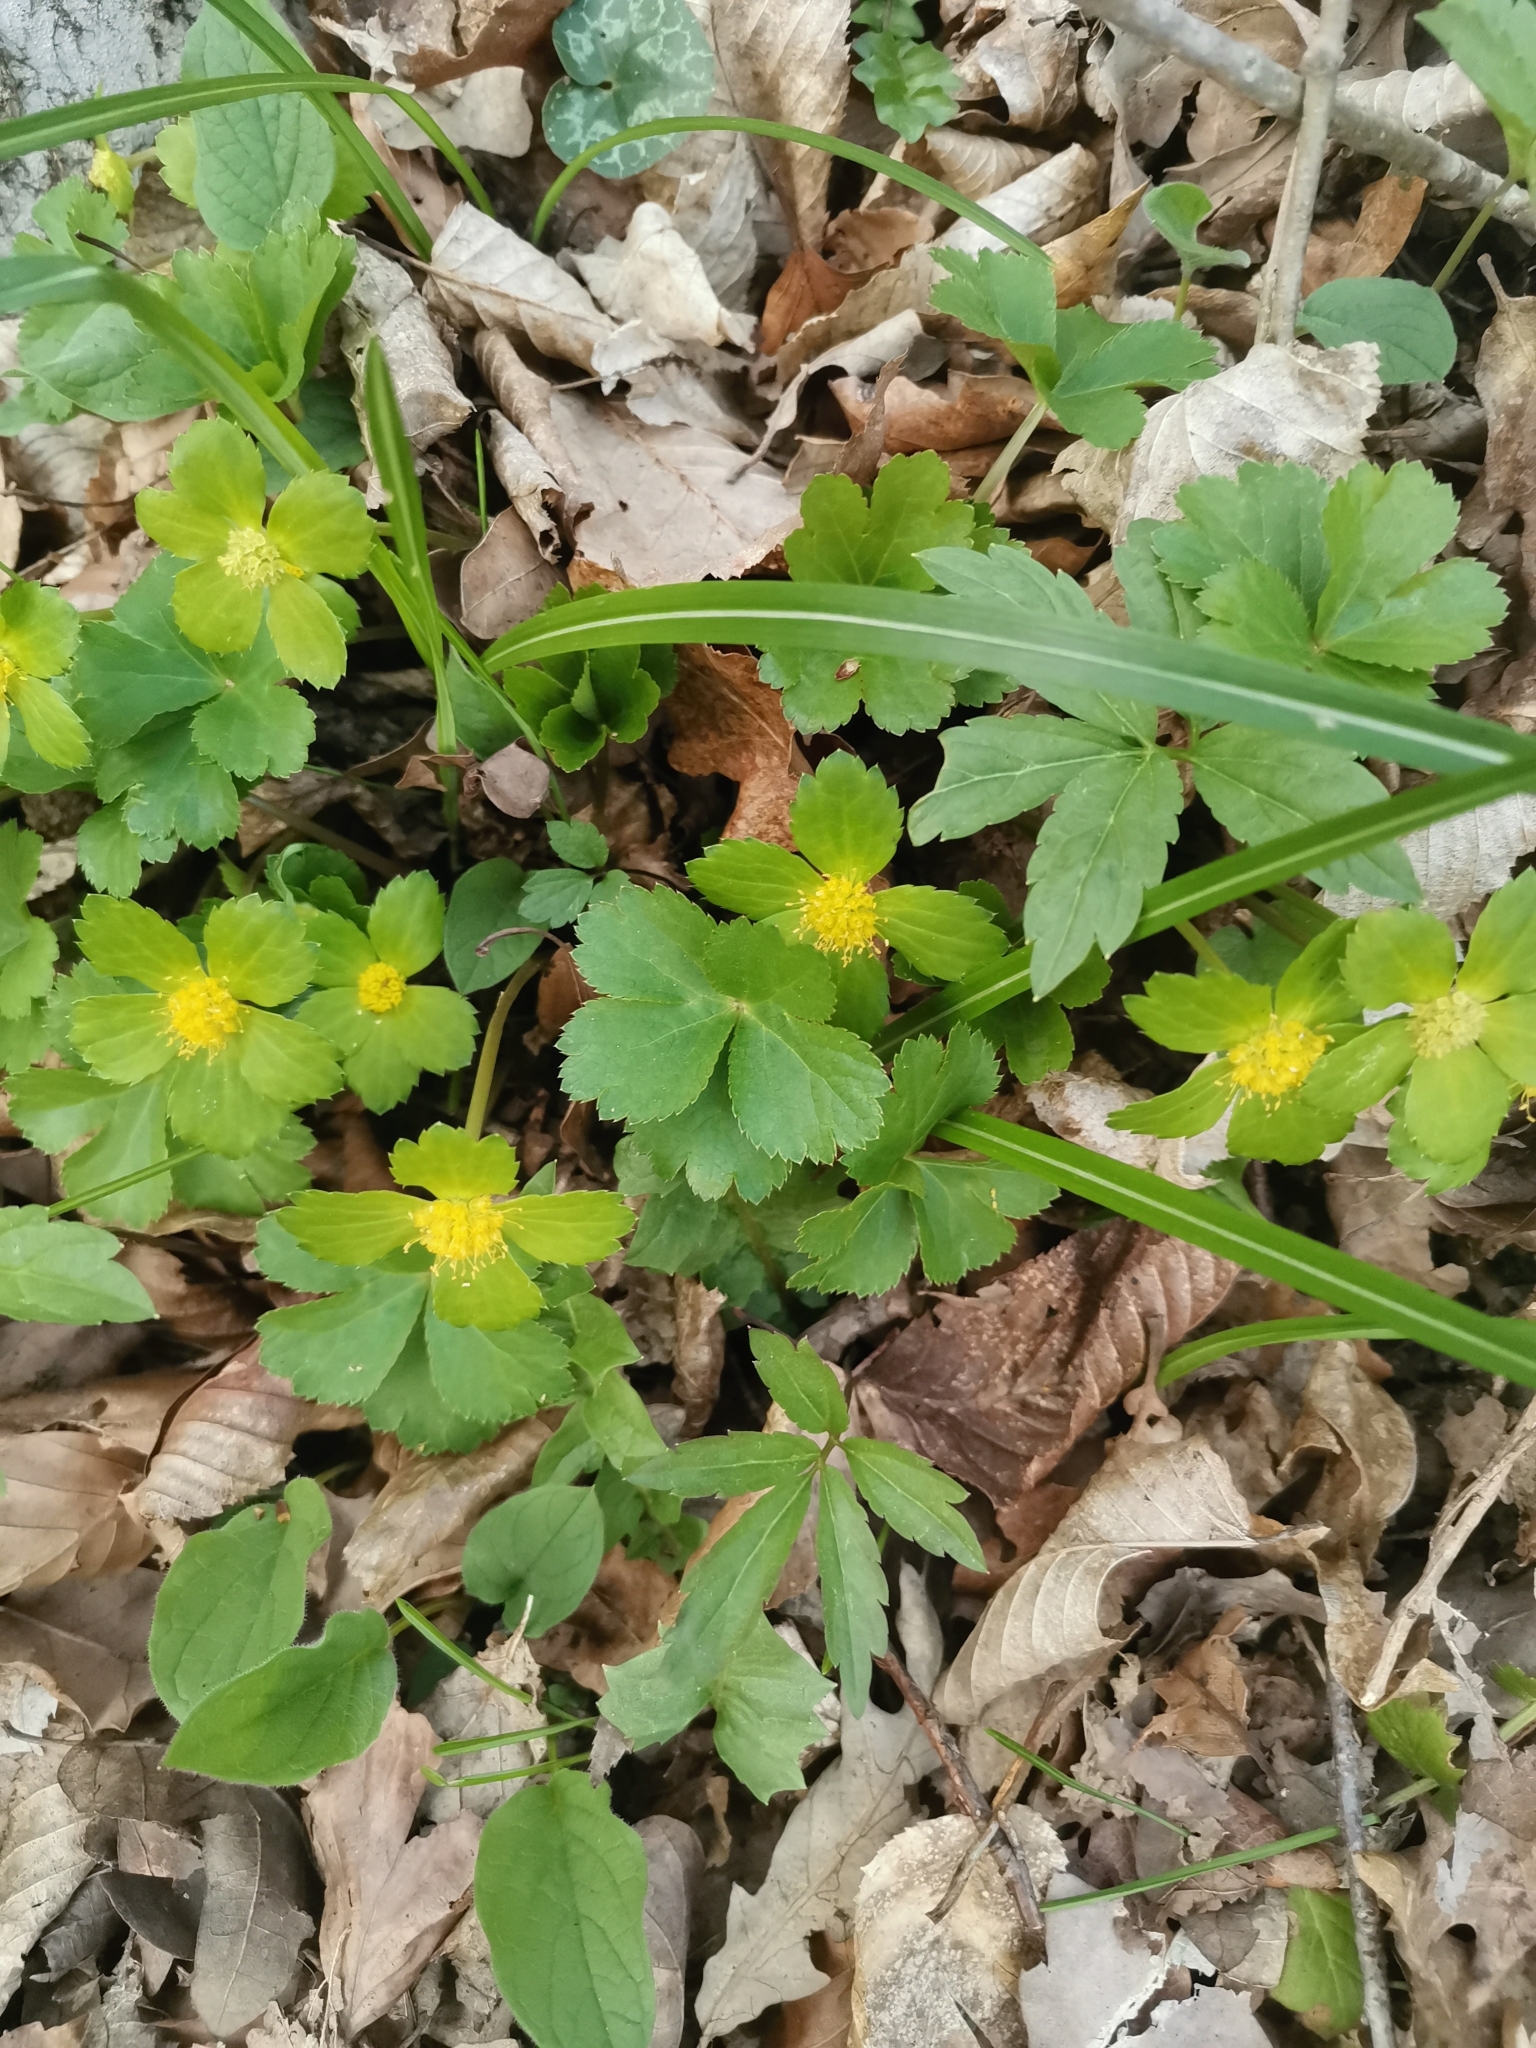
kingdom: Plantae
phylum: Tracheophyta
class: Magnoliopsida
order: Apiales
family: Apiaceae
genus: Sanicula
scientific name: Sanicula epipactis
